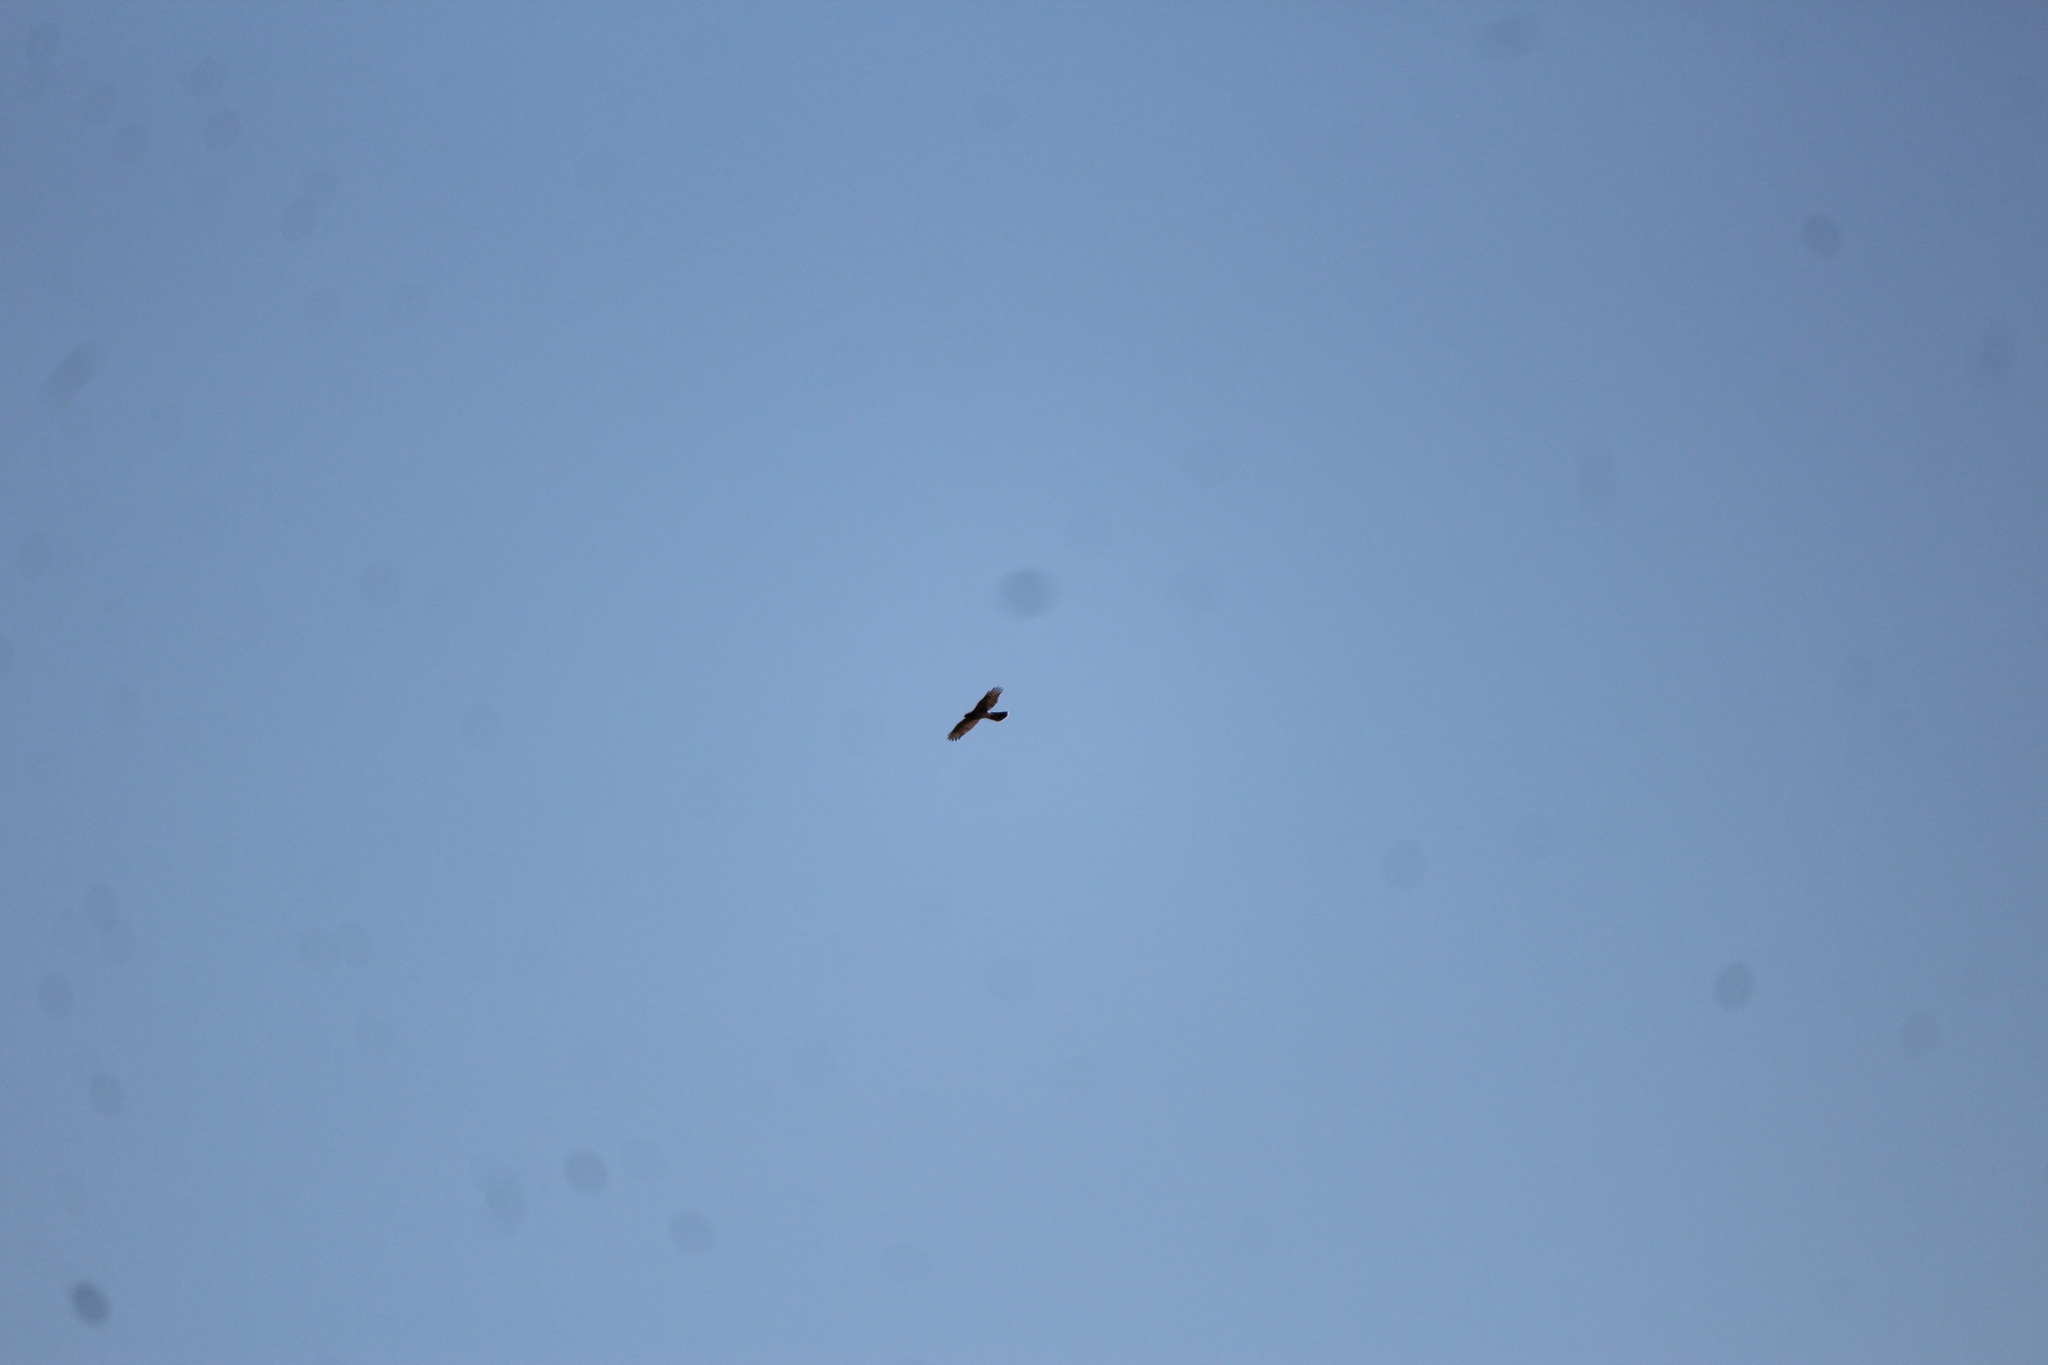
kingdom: Animalia
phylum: Chordata
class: Aves
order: Accipitriformes
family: Accipitridae
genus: Accipiter
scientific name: Accipiter cooperii
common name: Cooper's hawk
